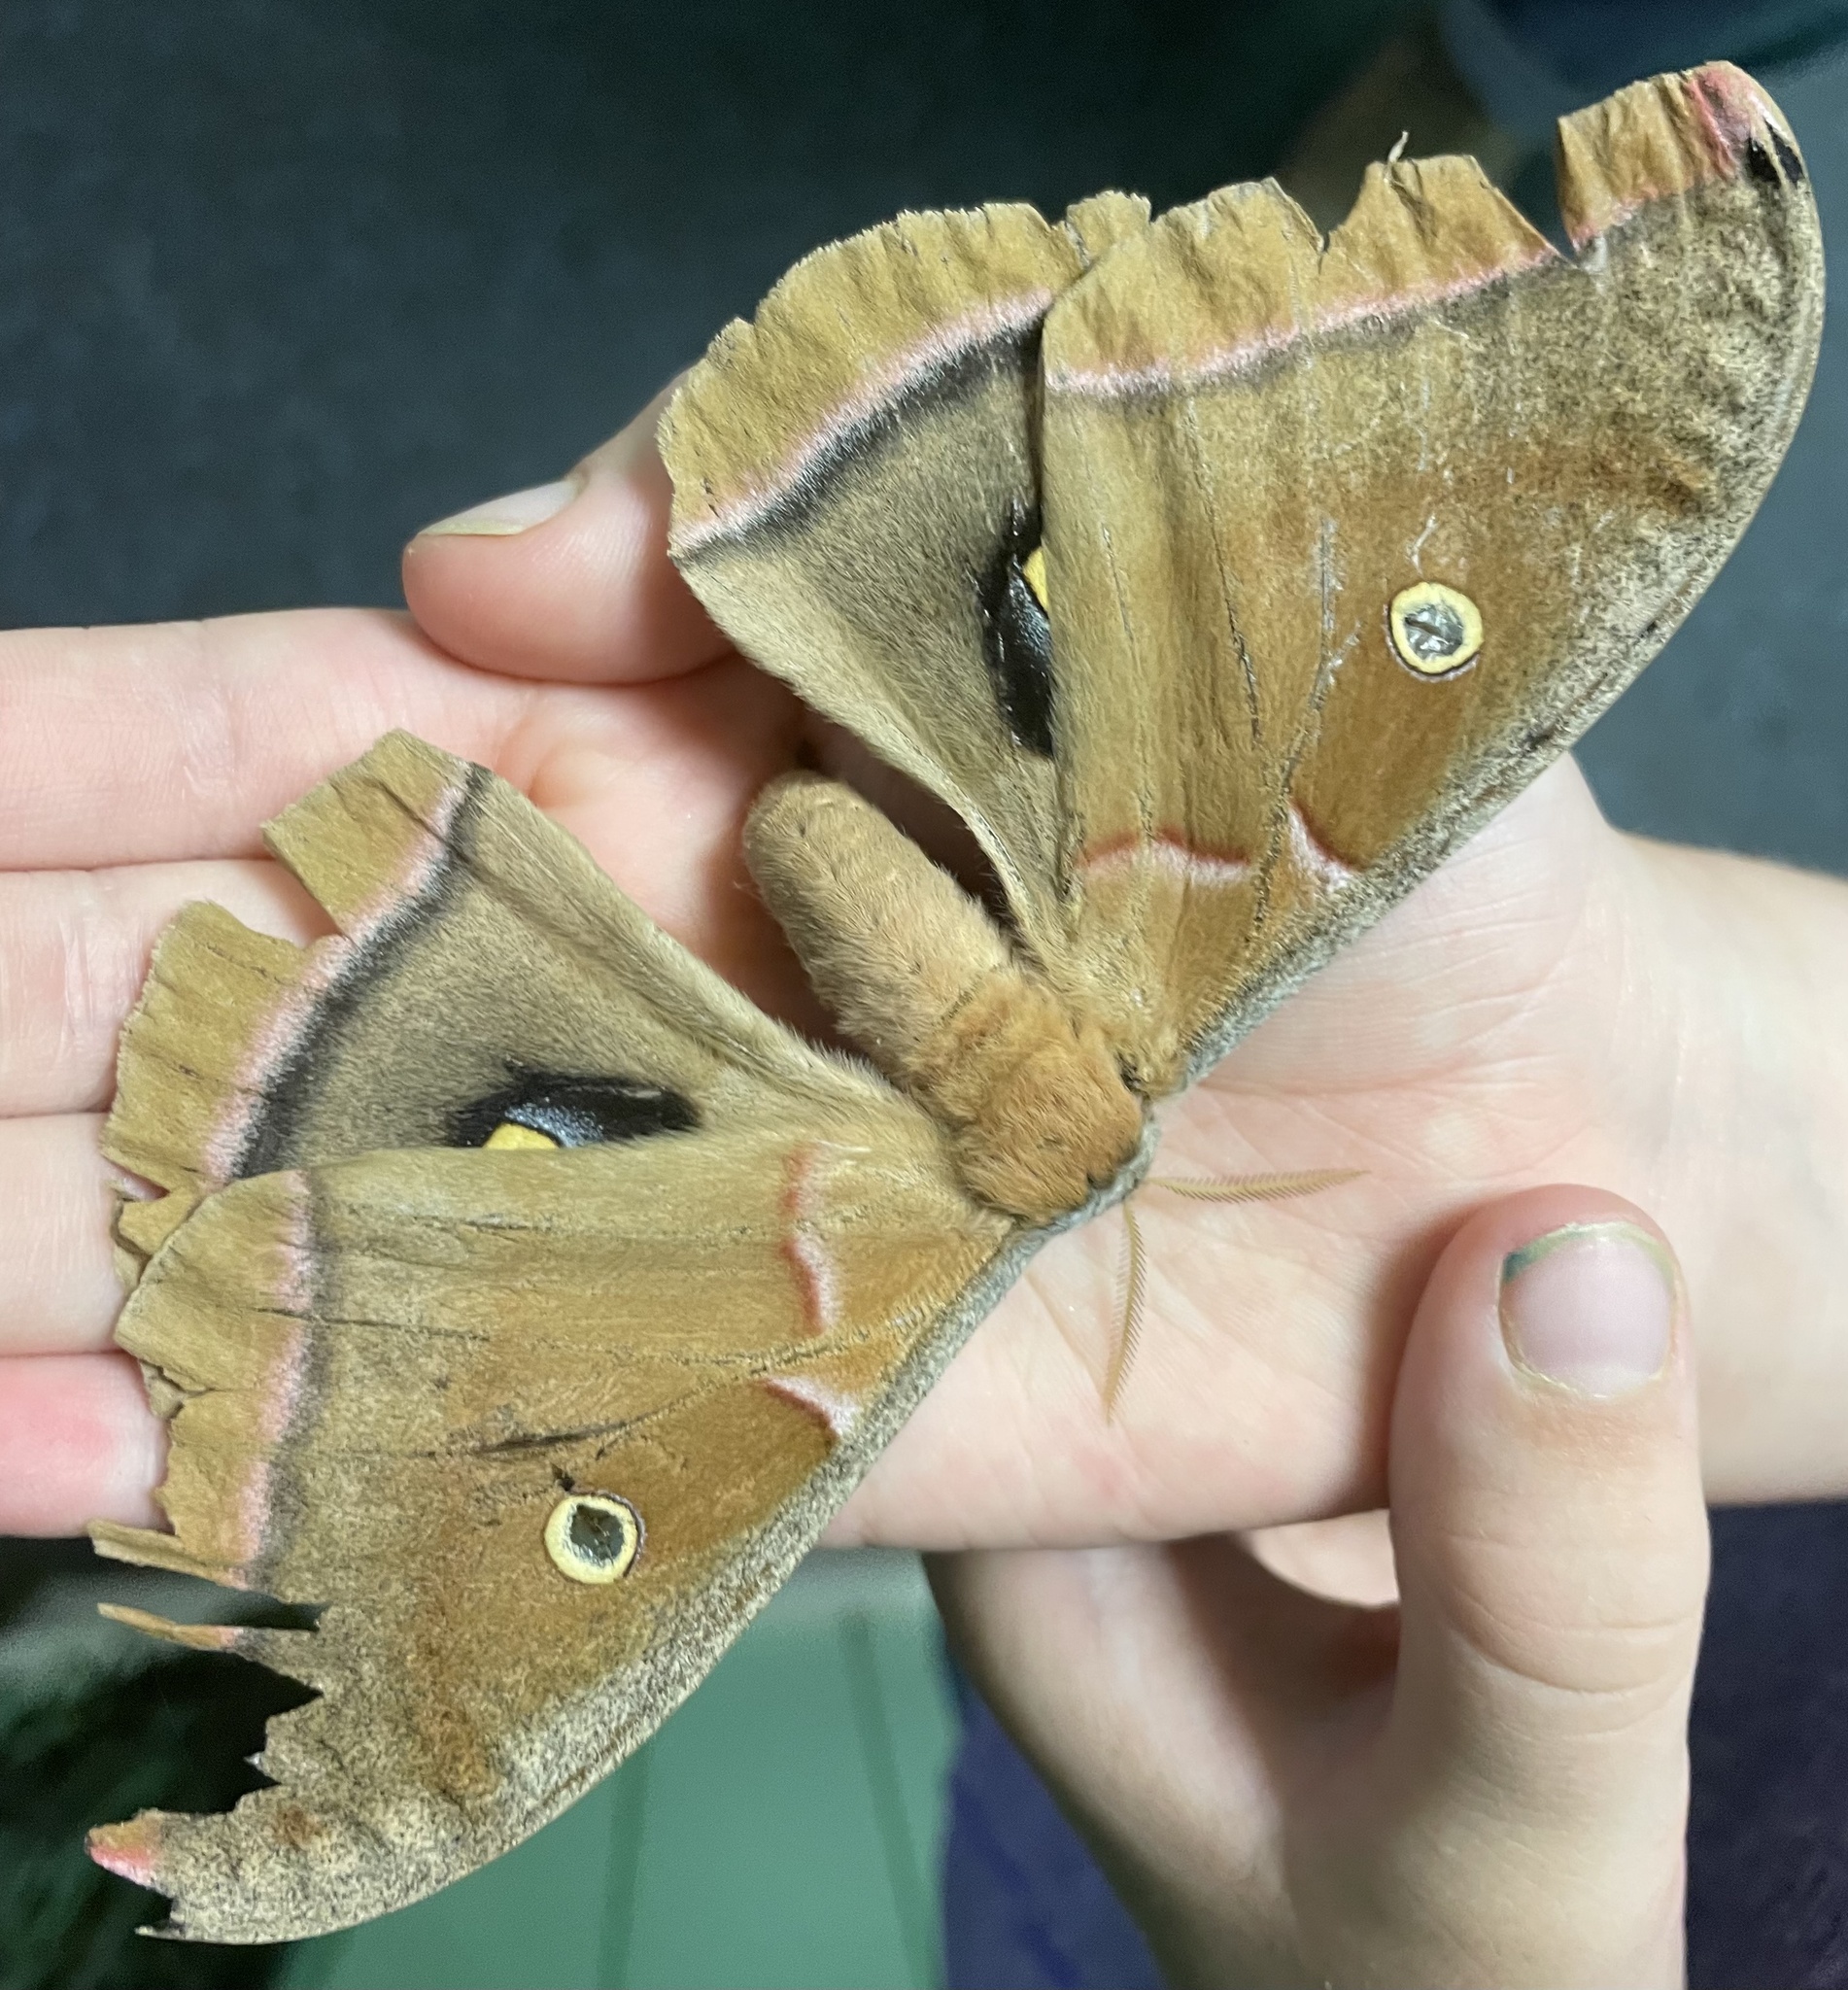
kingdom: Animalia
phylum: Arthropoda
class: Insecta
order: Lepidoptera
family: Saturniidae
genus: Antheraea
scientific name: Antheraea polyphemus
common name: Polyphemus moth
